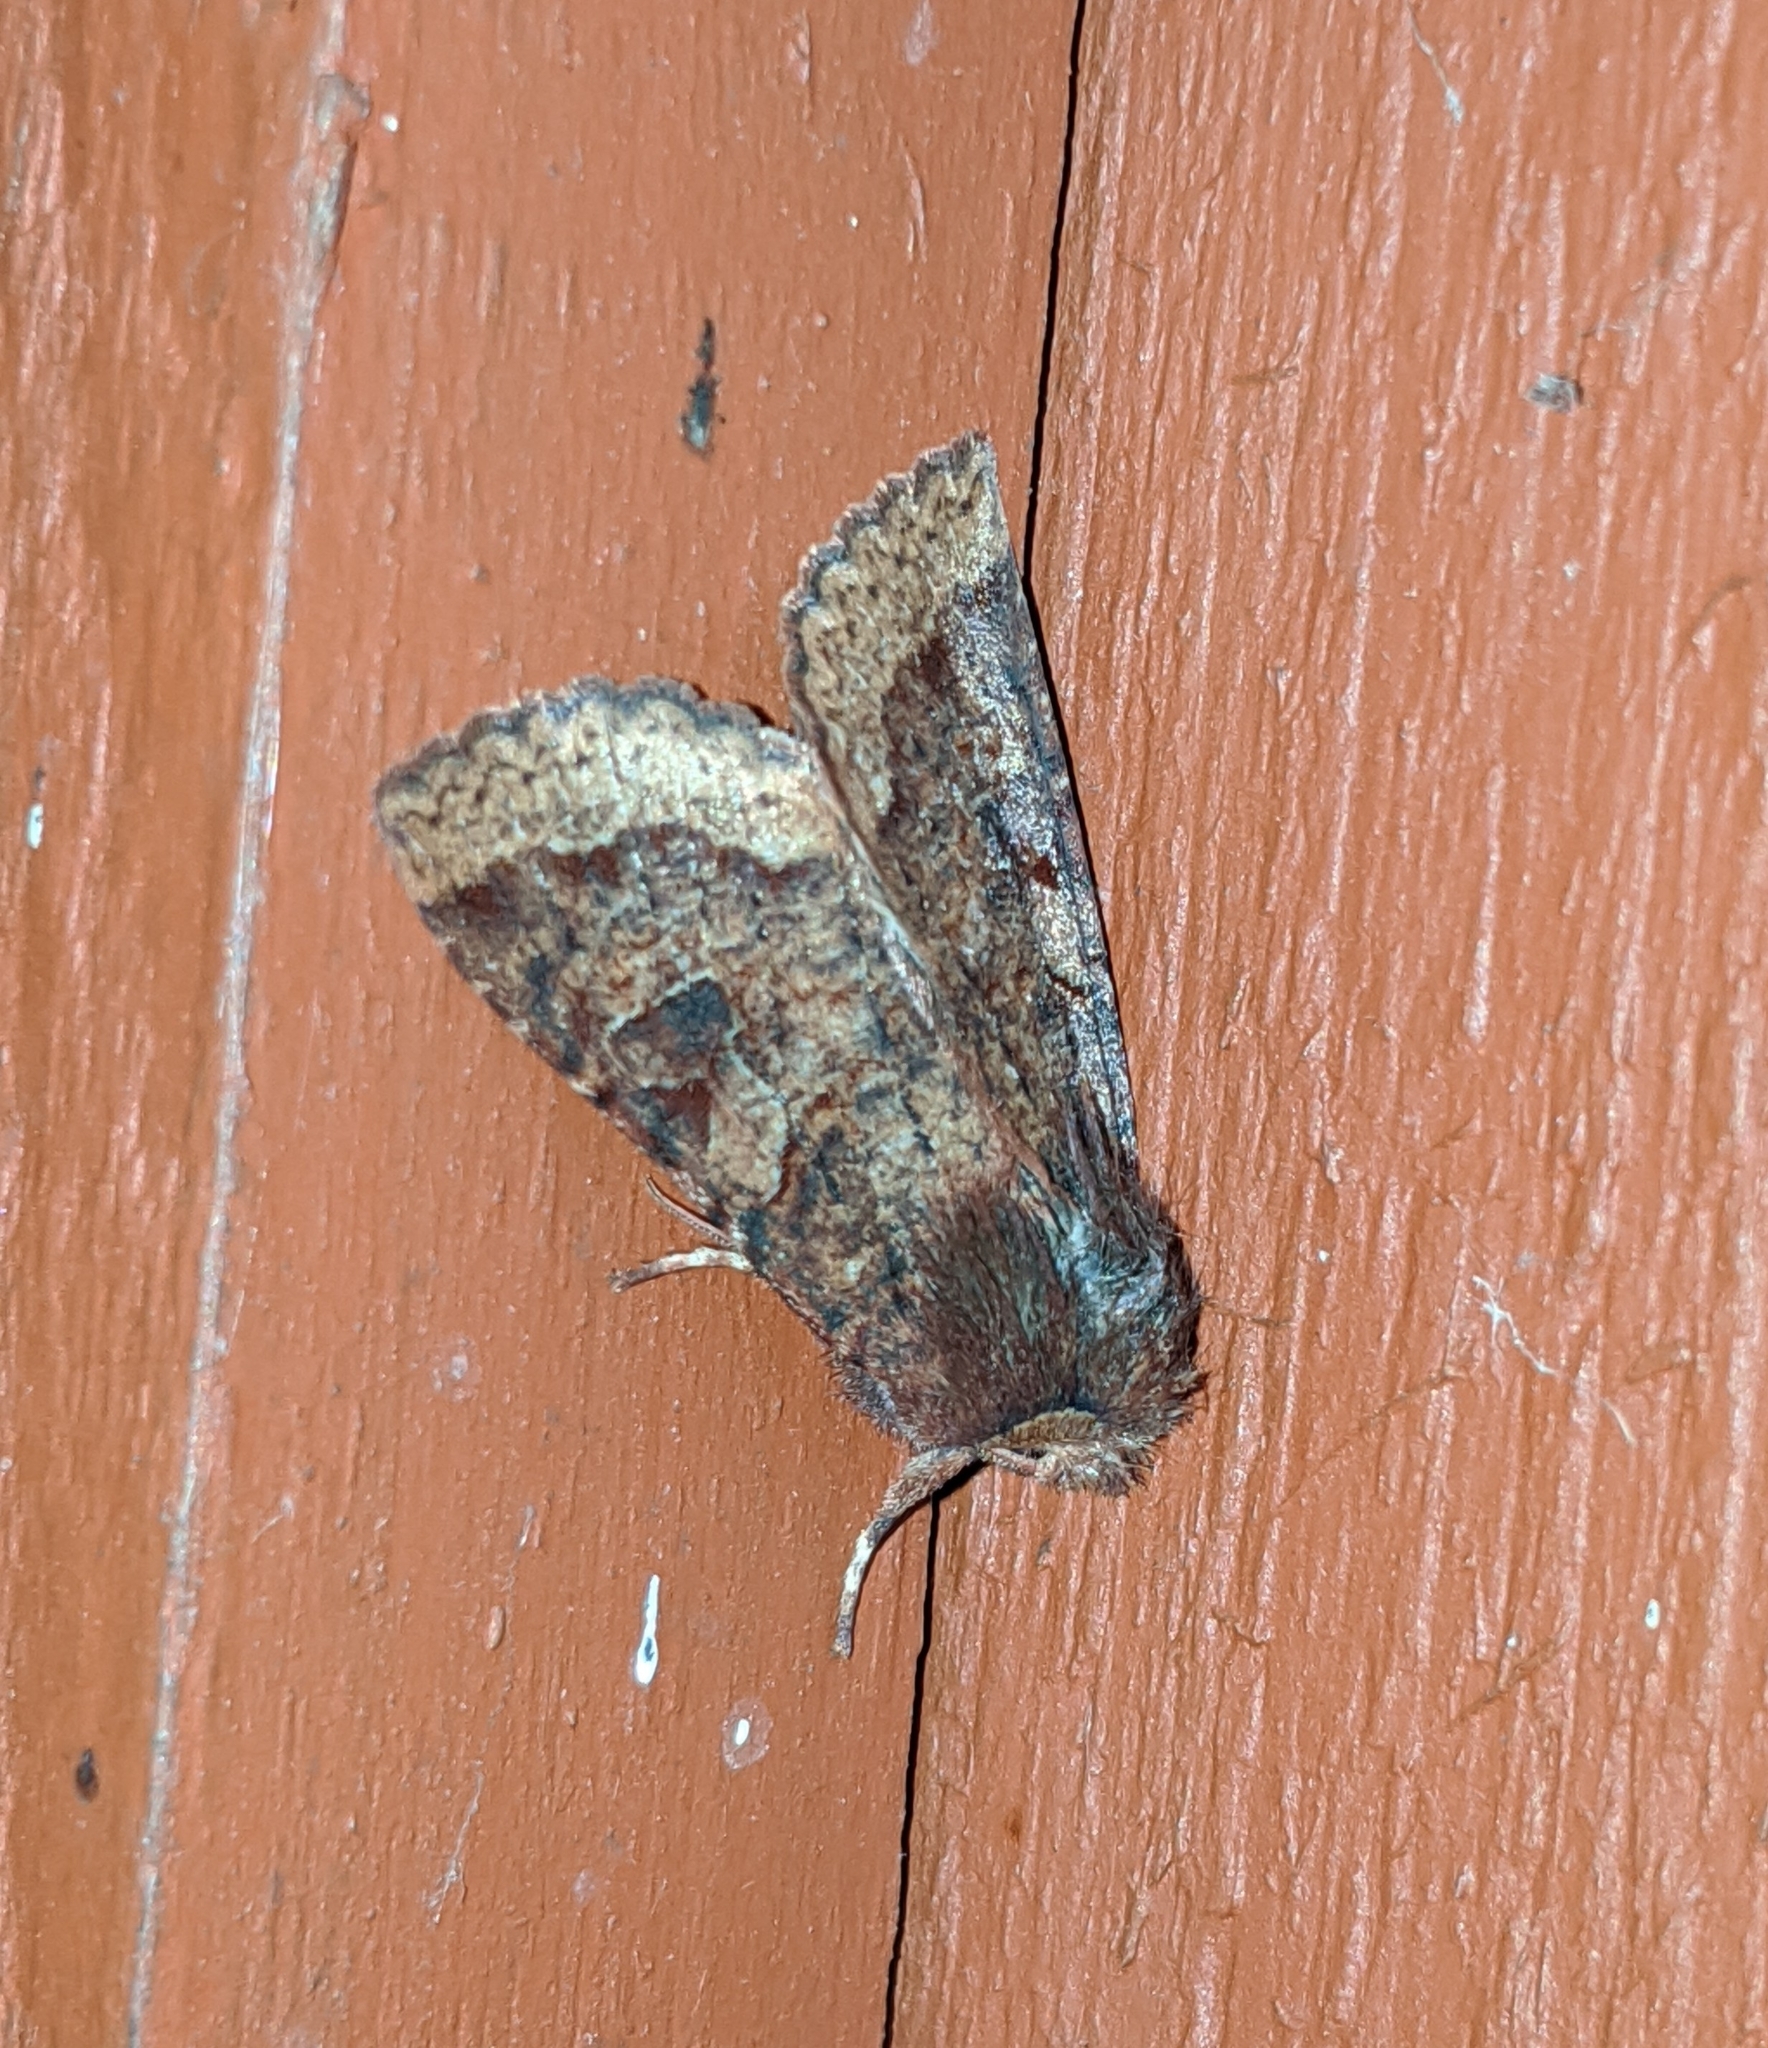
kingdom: Animalia
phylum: Arthropoda
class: Insecta
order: Lepidoptera
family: Noctuidae
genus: Orthosia
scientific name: Orthosia praeses
